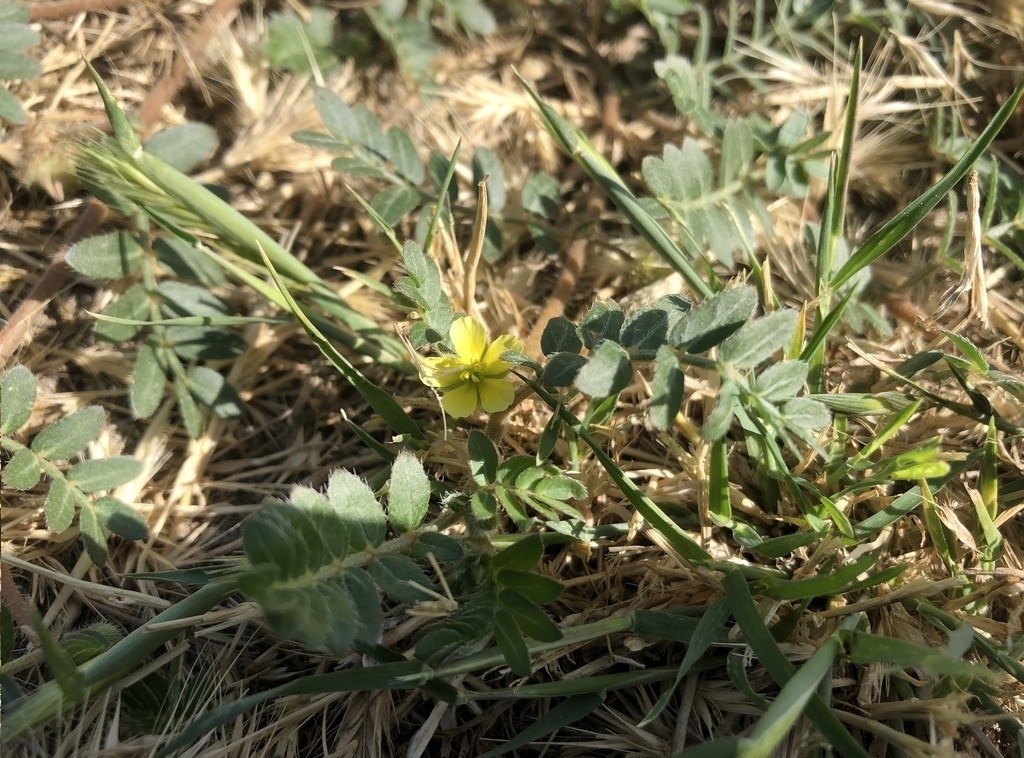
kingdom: Plantae
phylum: Tracheophyta
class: Magnoliopsida
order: Zygophyllales
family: Zygophyllaceae
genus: Tribulus
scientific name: Tribulus terrestris
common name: Puncturevine
